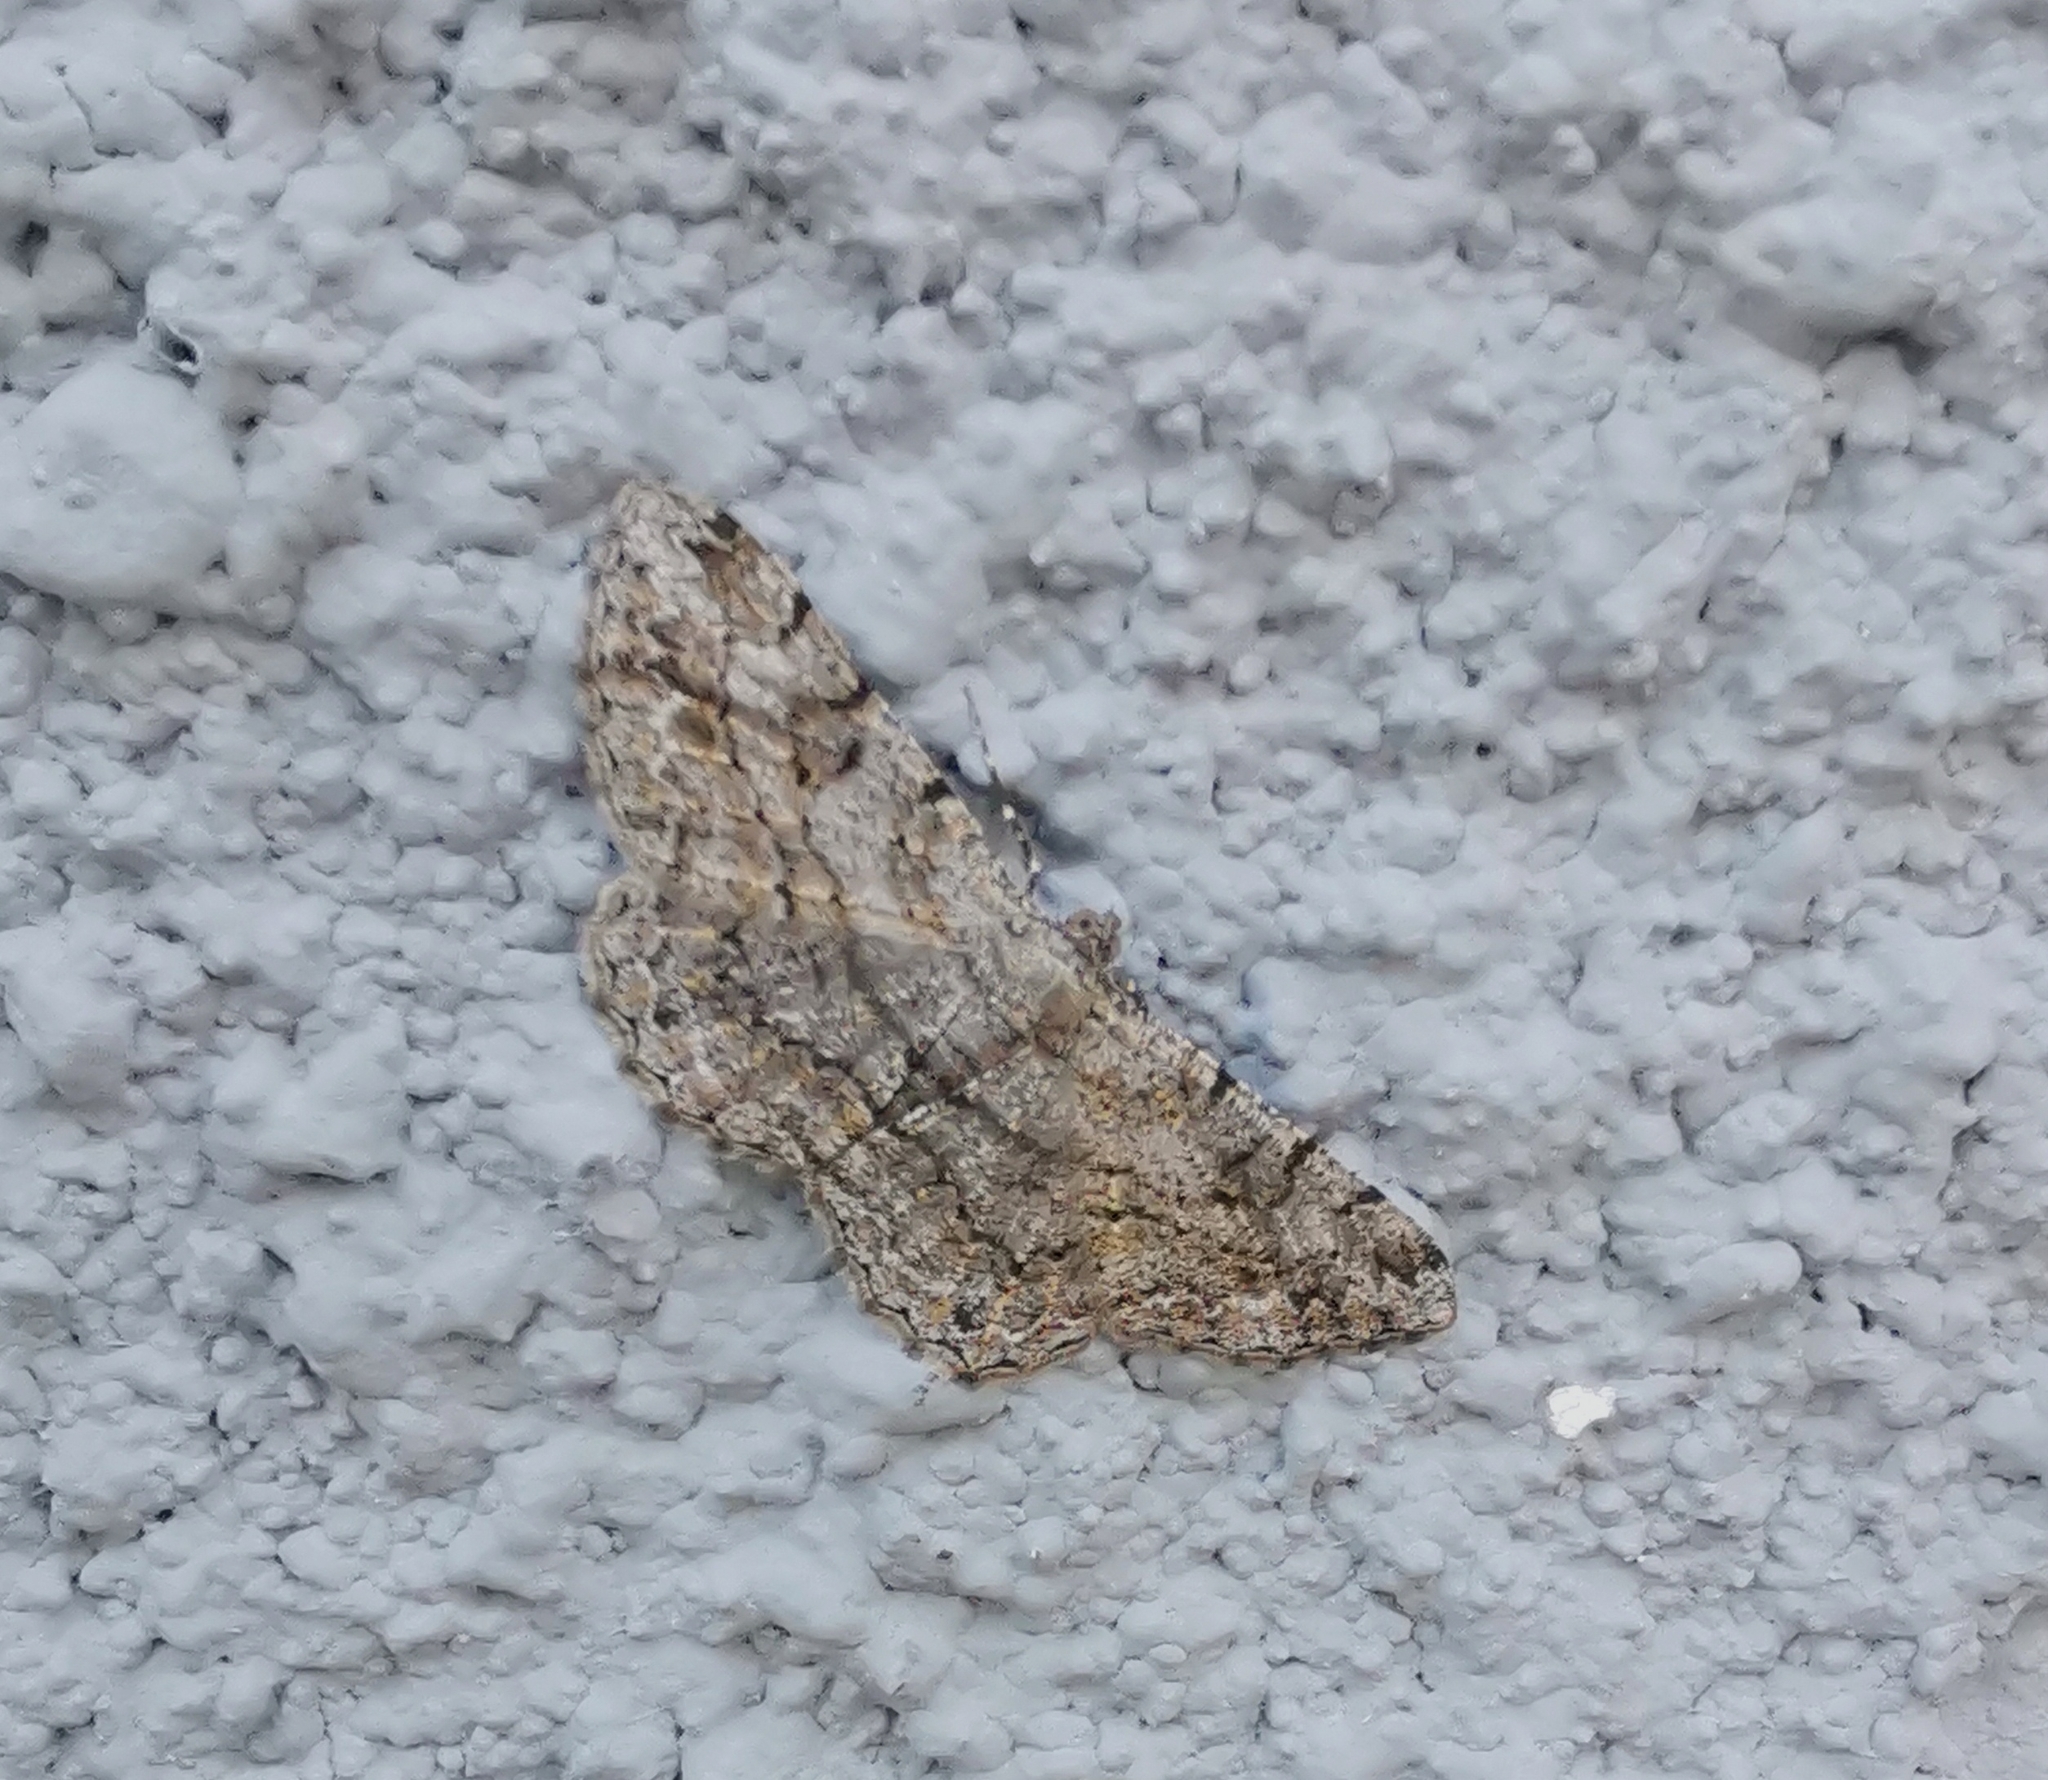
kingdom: Animalia
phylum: Arthropoda
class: Insecta
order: Lepidoptera
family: Geometridae
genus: Peribatodes
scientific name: Peribatodes rhomboidaria
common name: Willow beauty
